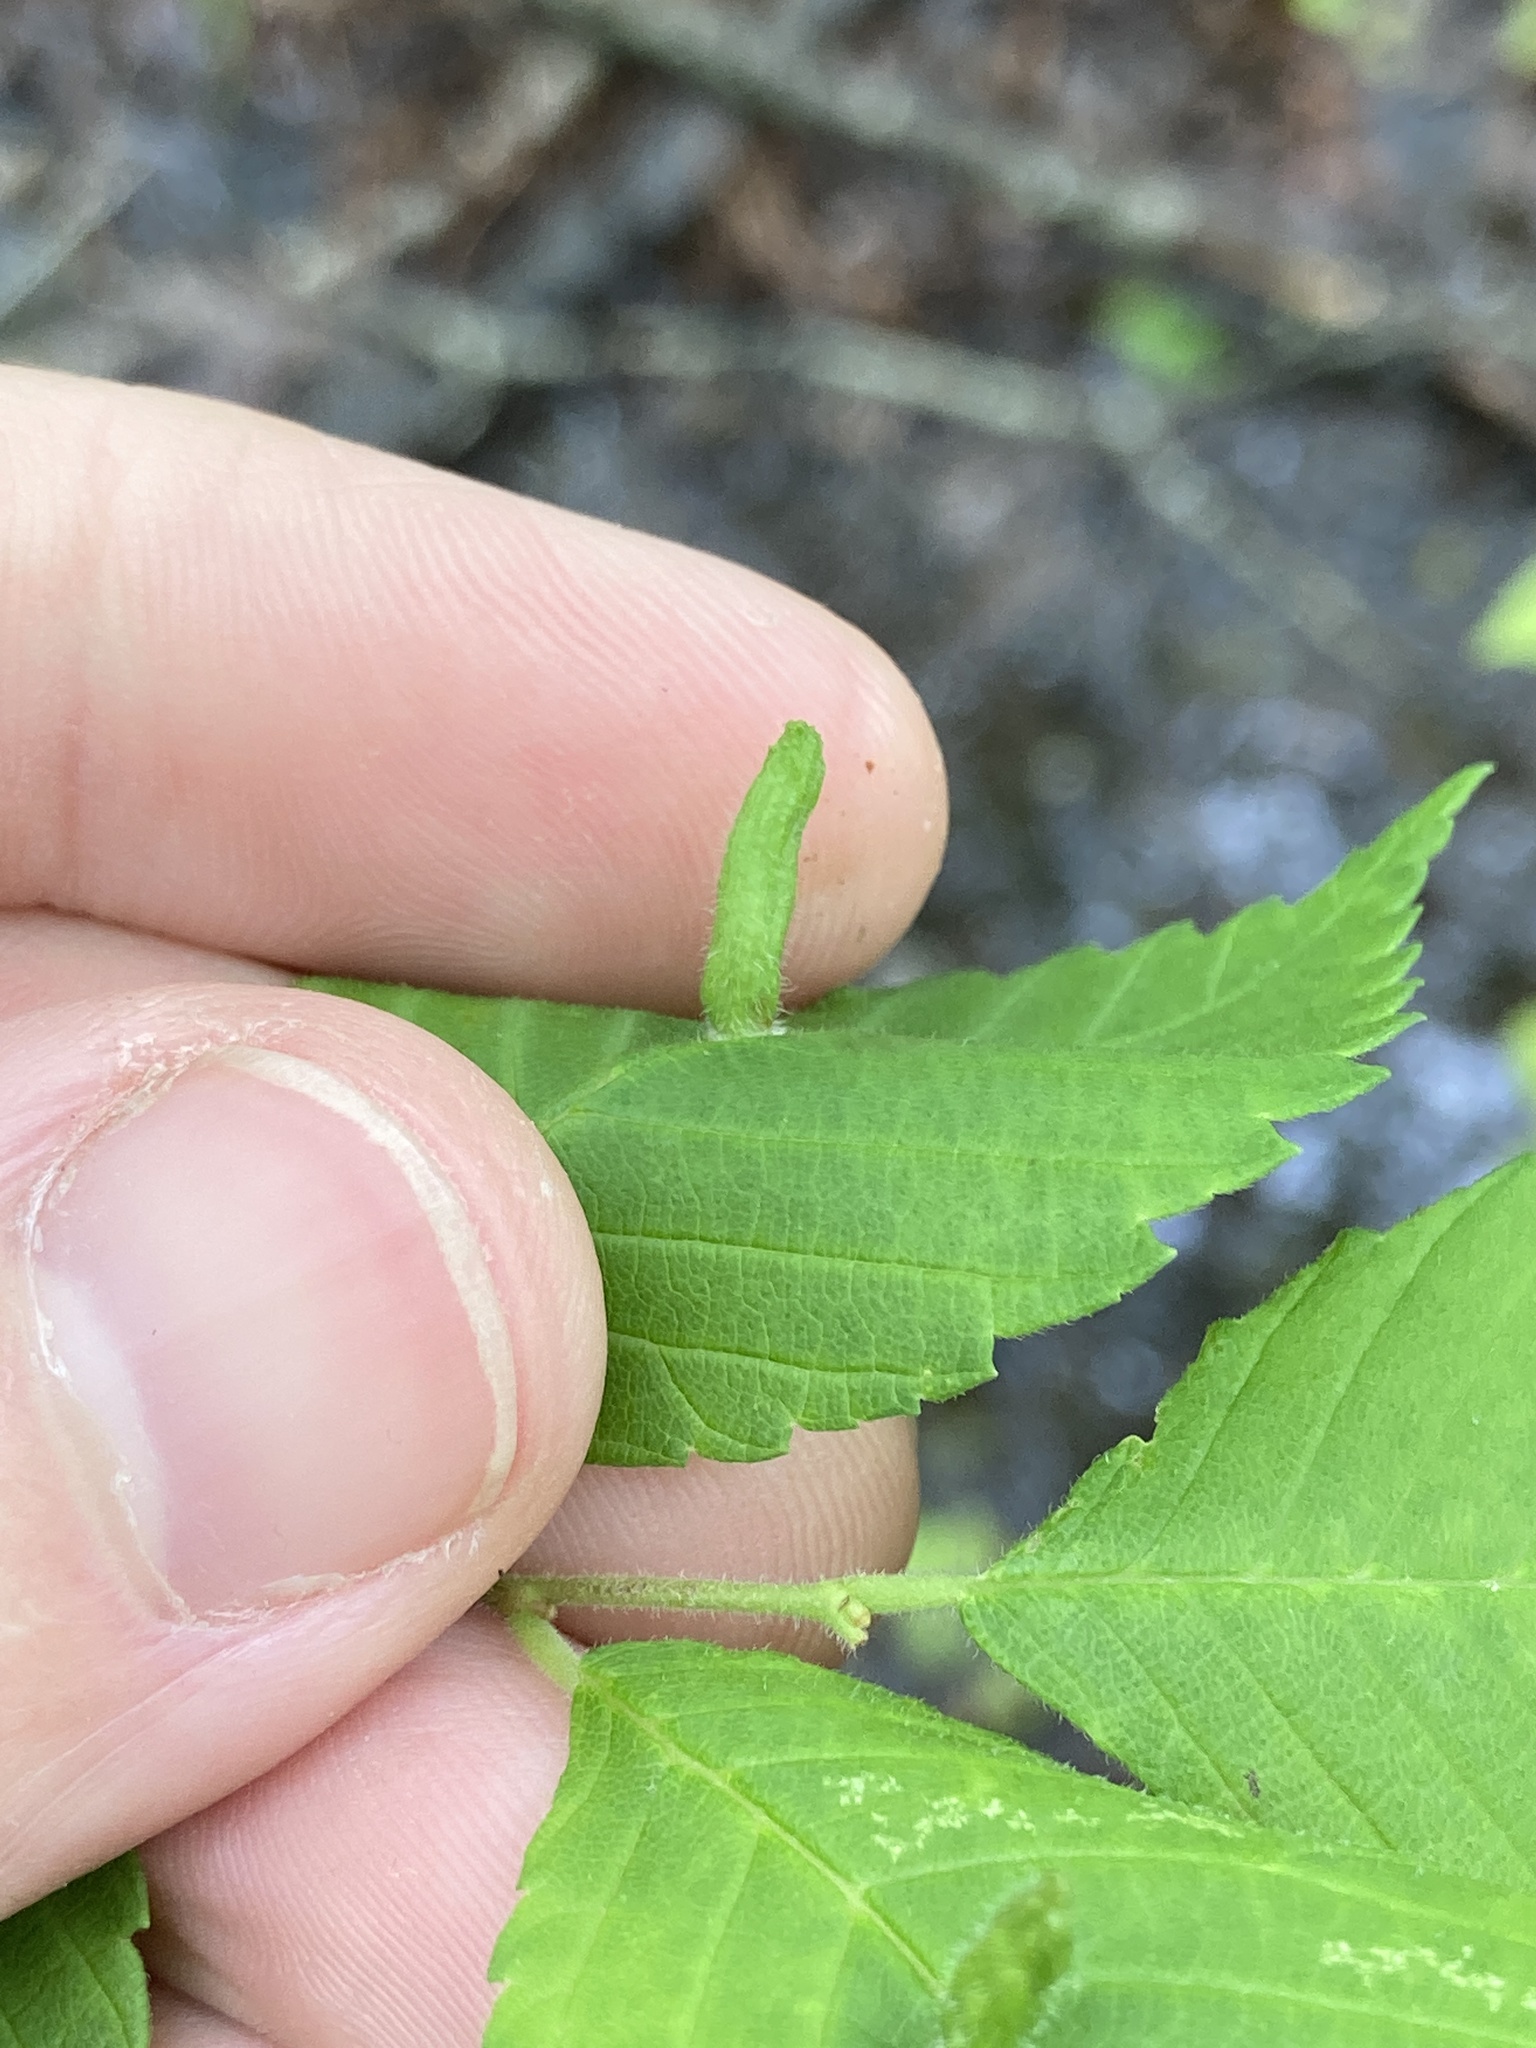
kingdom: Animalia
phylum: Arthropoda
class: Arachnida
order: Trombidiformes
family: Eriophyidae
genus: Aceria
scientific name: Aceria
